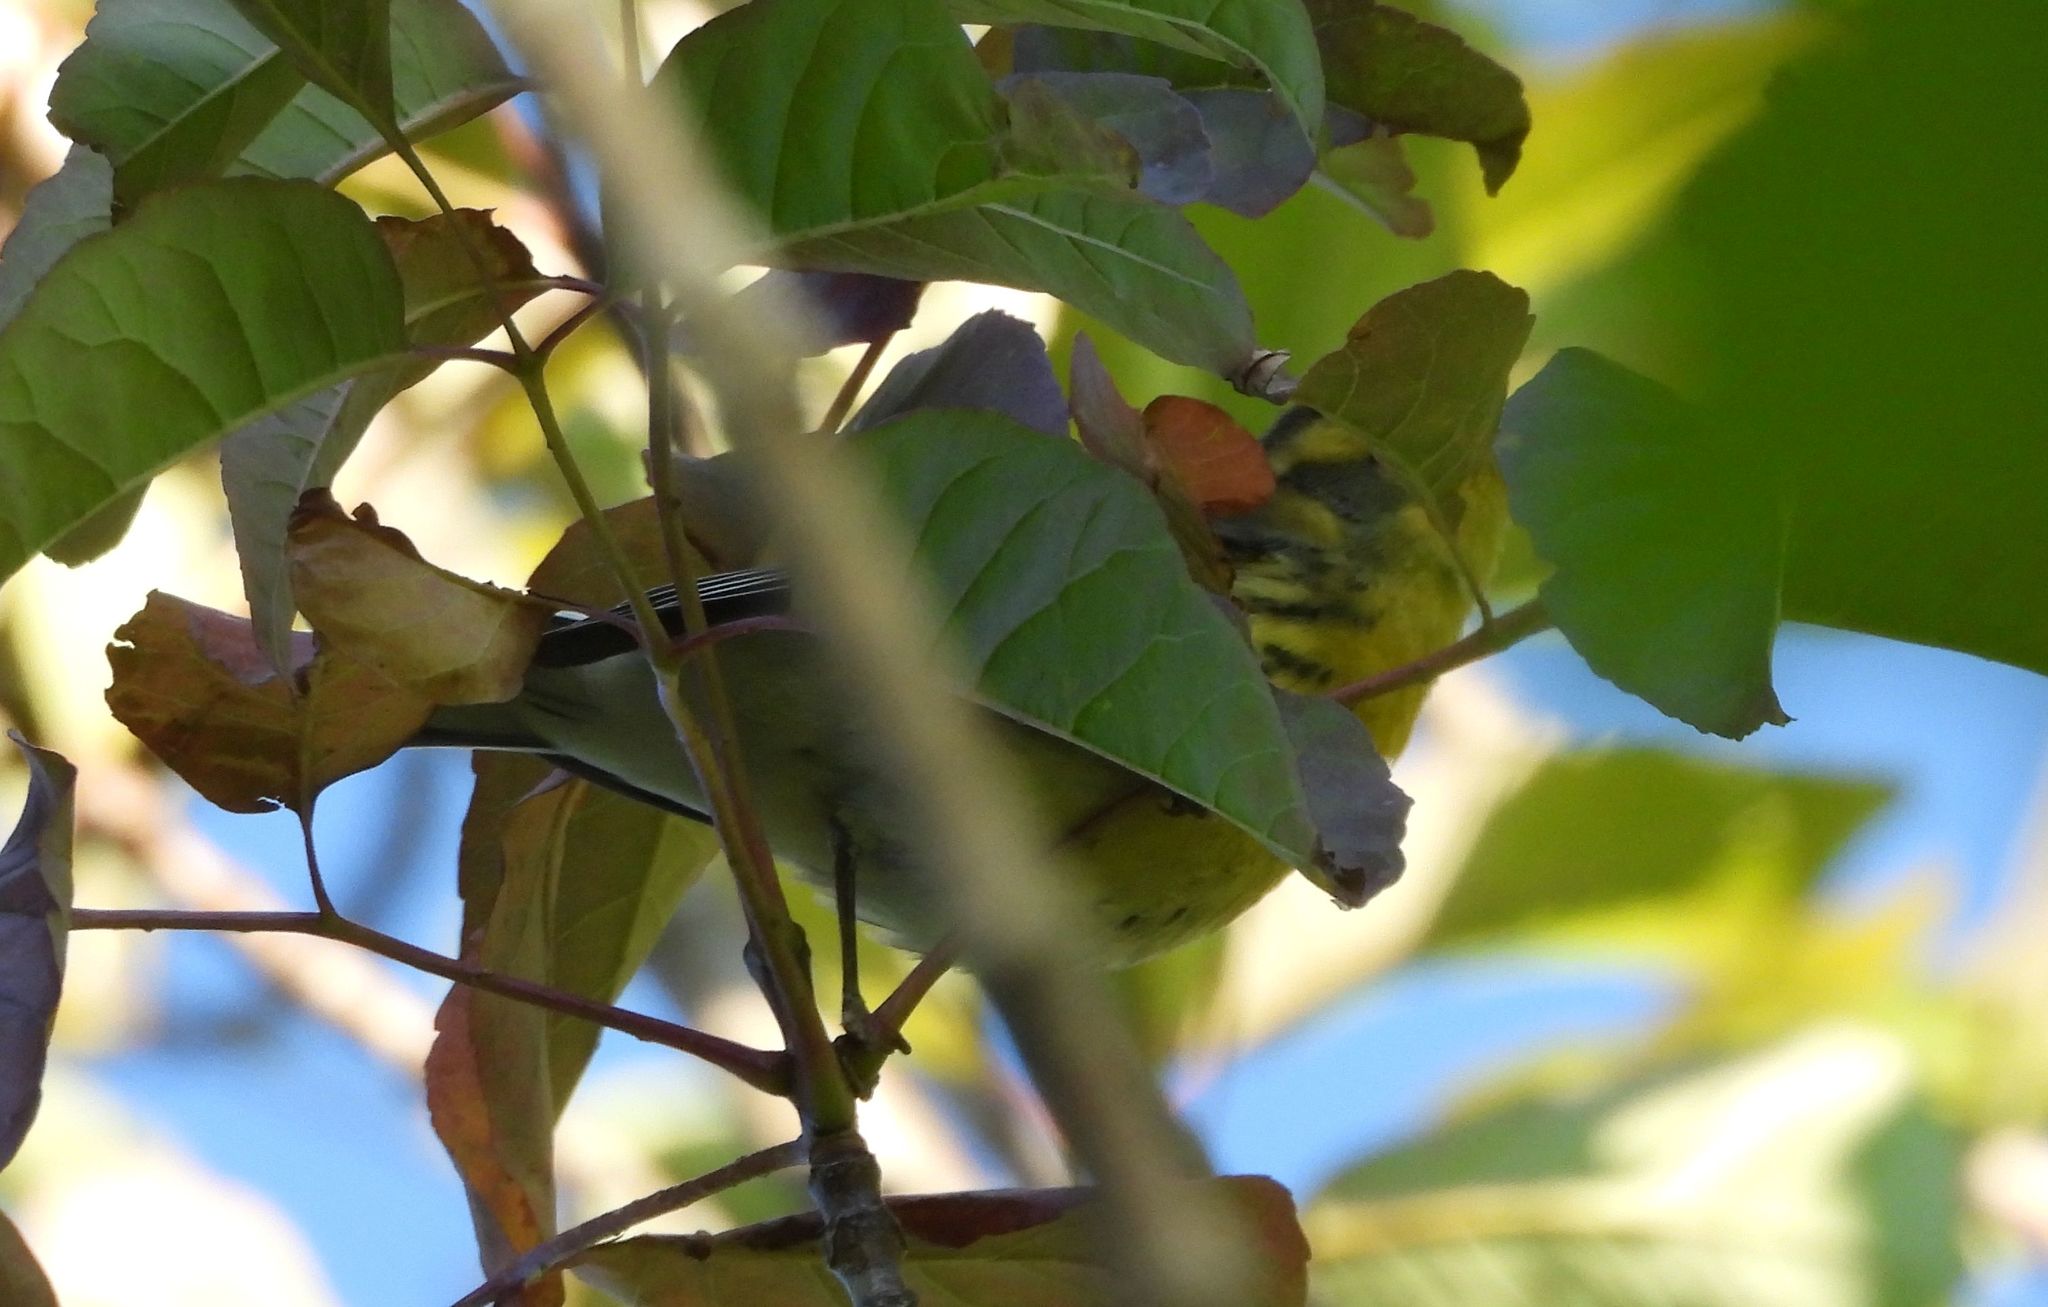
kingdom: Animalia
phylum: Chordata
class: Aves
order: Passeriformes
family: Parulidae
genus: Setophaga
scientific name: Setophaga fusca
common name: Blackburnian warbler
